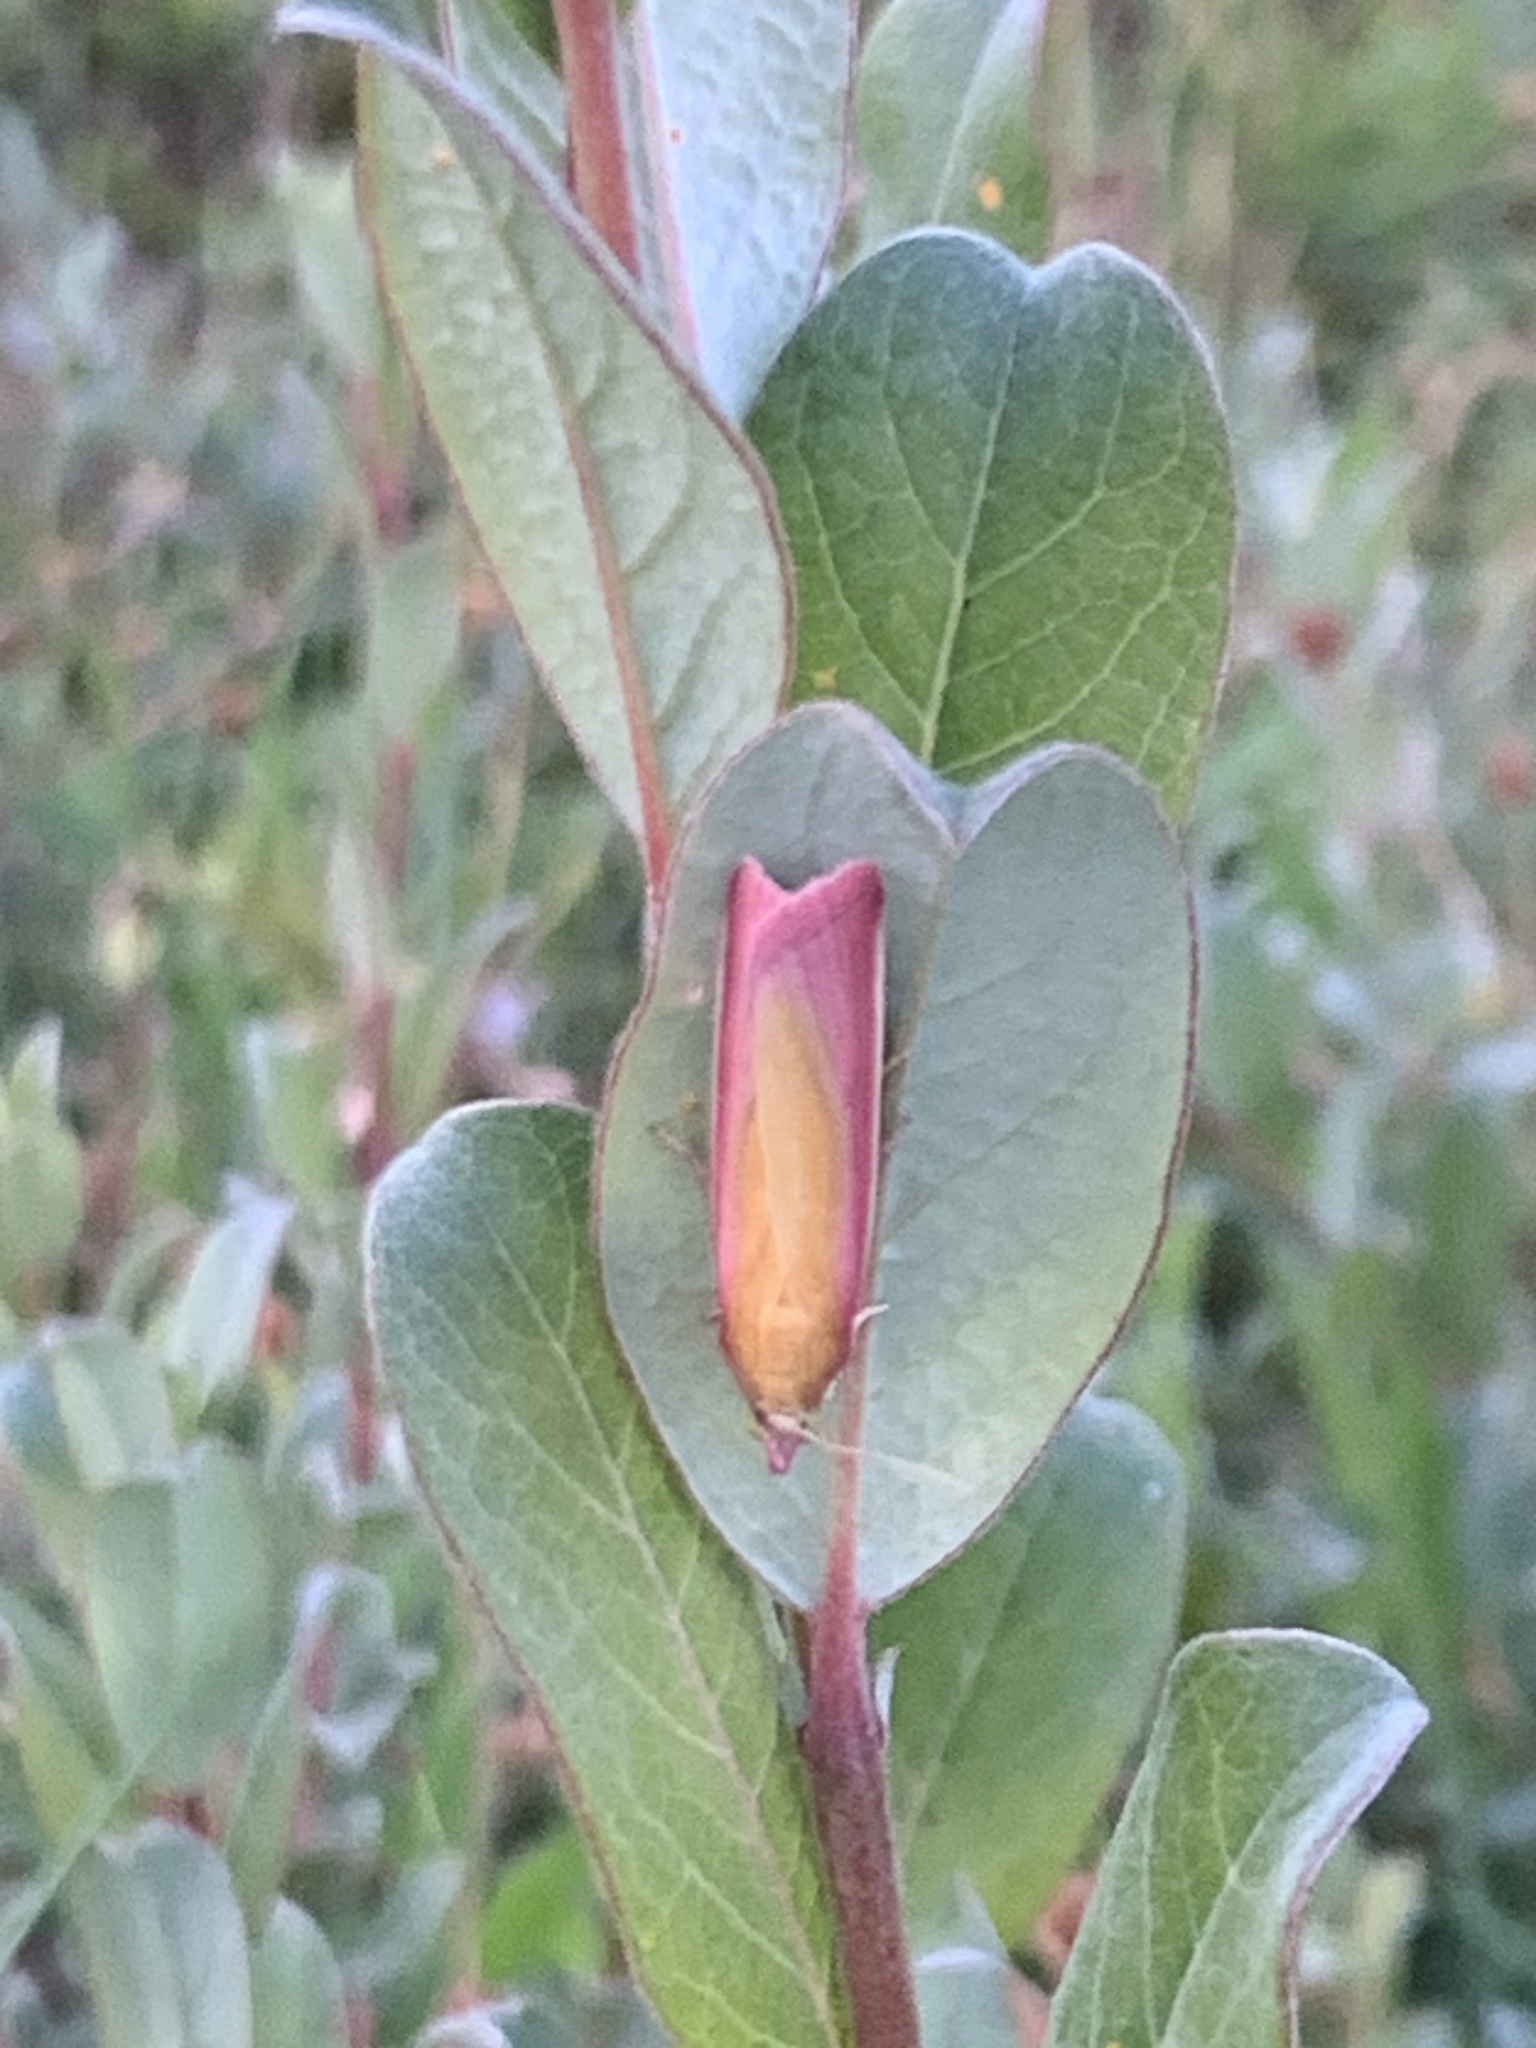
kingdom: Animalia
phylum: Arthropoda
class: Insecta
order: Lepidoptera
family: Pyralidae
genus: Oncocera
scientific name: Oncocera semirubella
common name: Rosy-striped knot-horn
